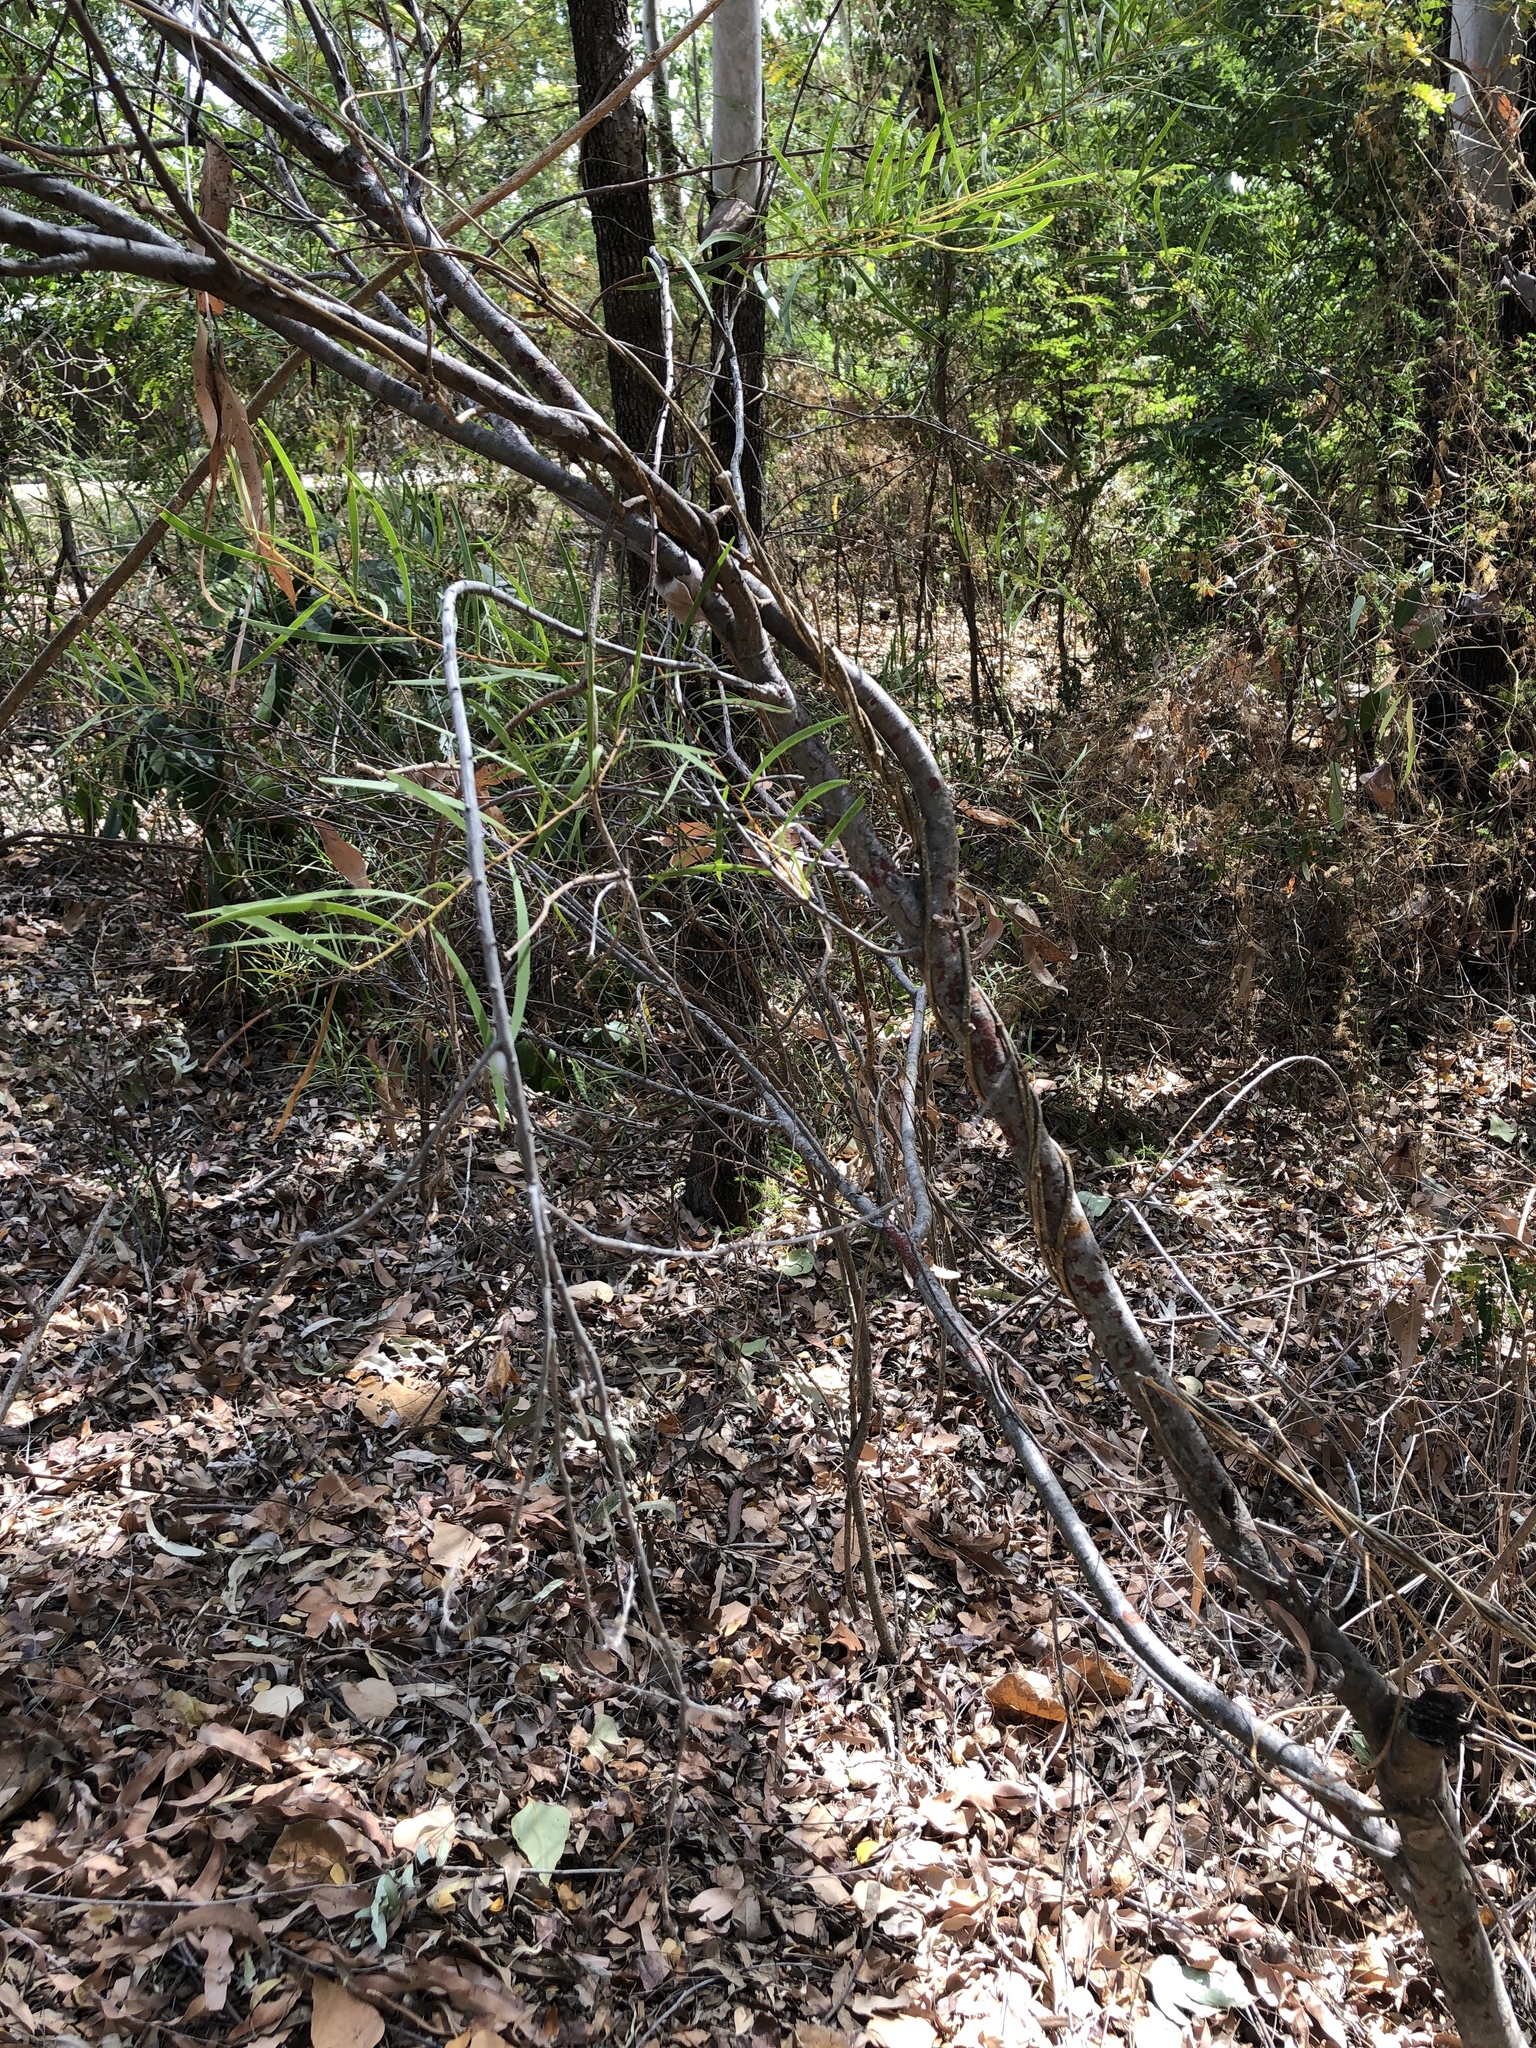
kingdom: Plantae
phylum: Tracheophyta
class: Magnoliopsida
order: Fabales
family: Fabaceae
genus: Acacia
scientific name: Acacia simsii
